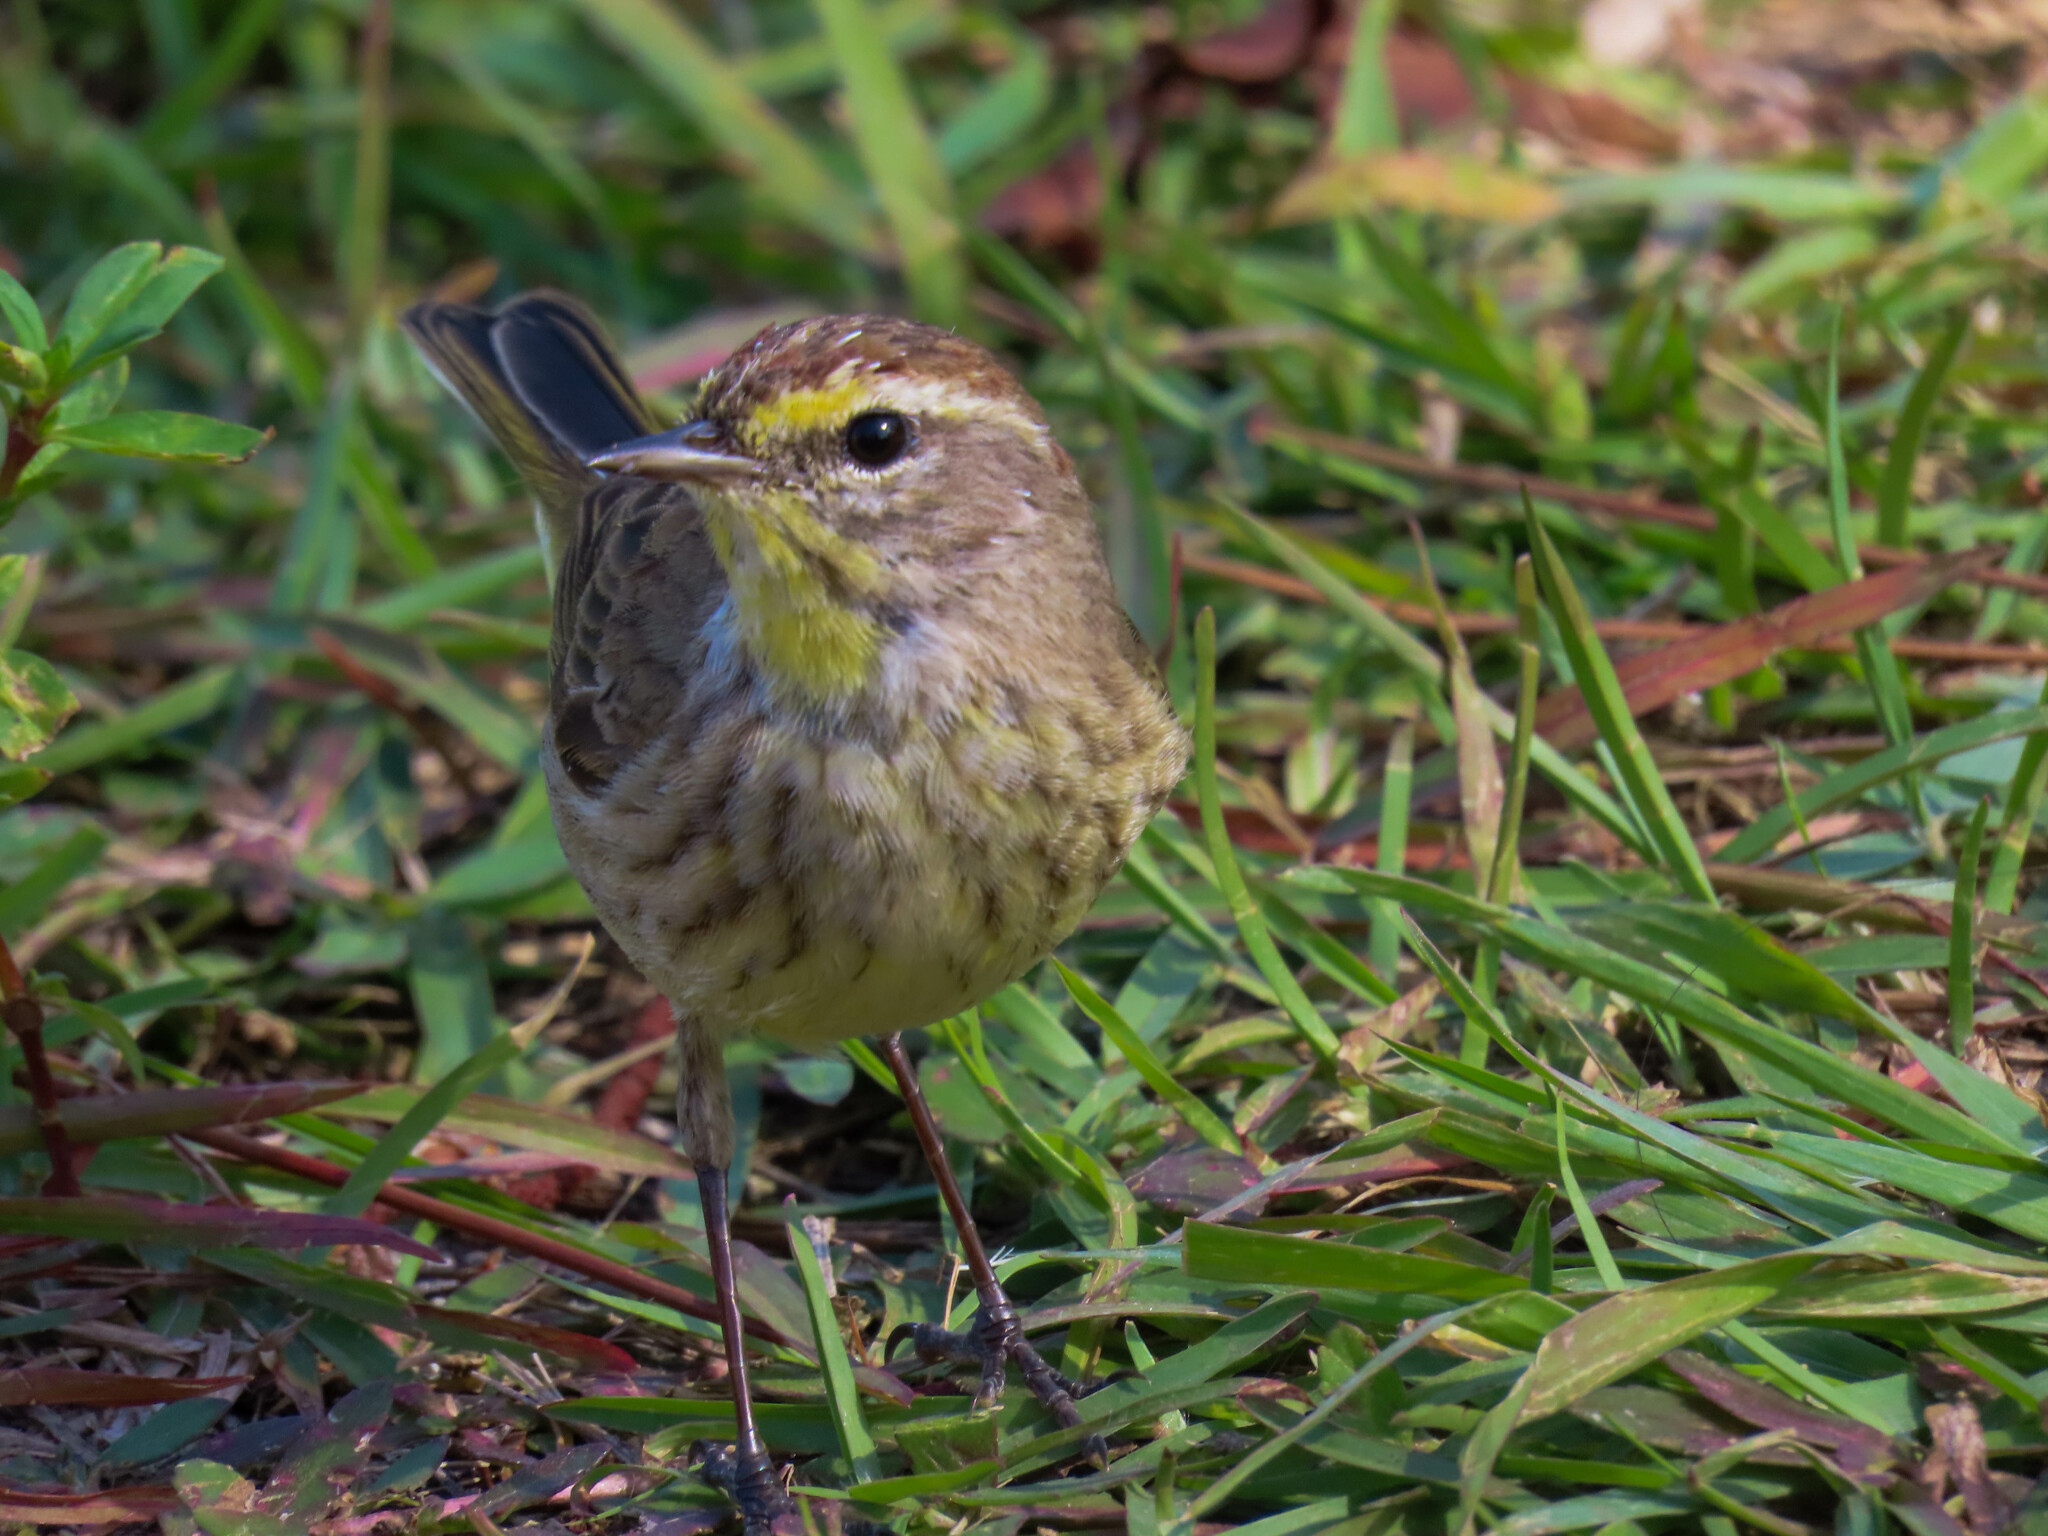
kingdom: Animalia
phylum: Chordata
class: Aves
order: Passeriformes
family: Parulidae
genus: Setophaga
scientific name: Setophaga palmarum
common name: Palm warbler
